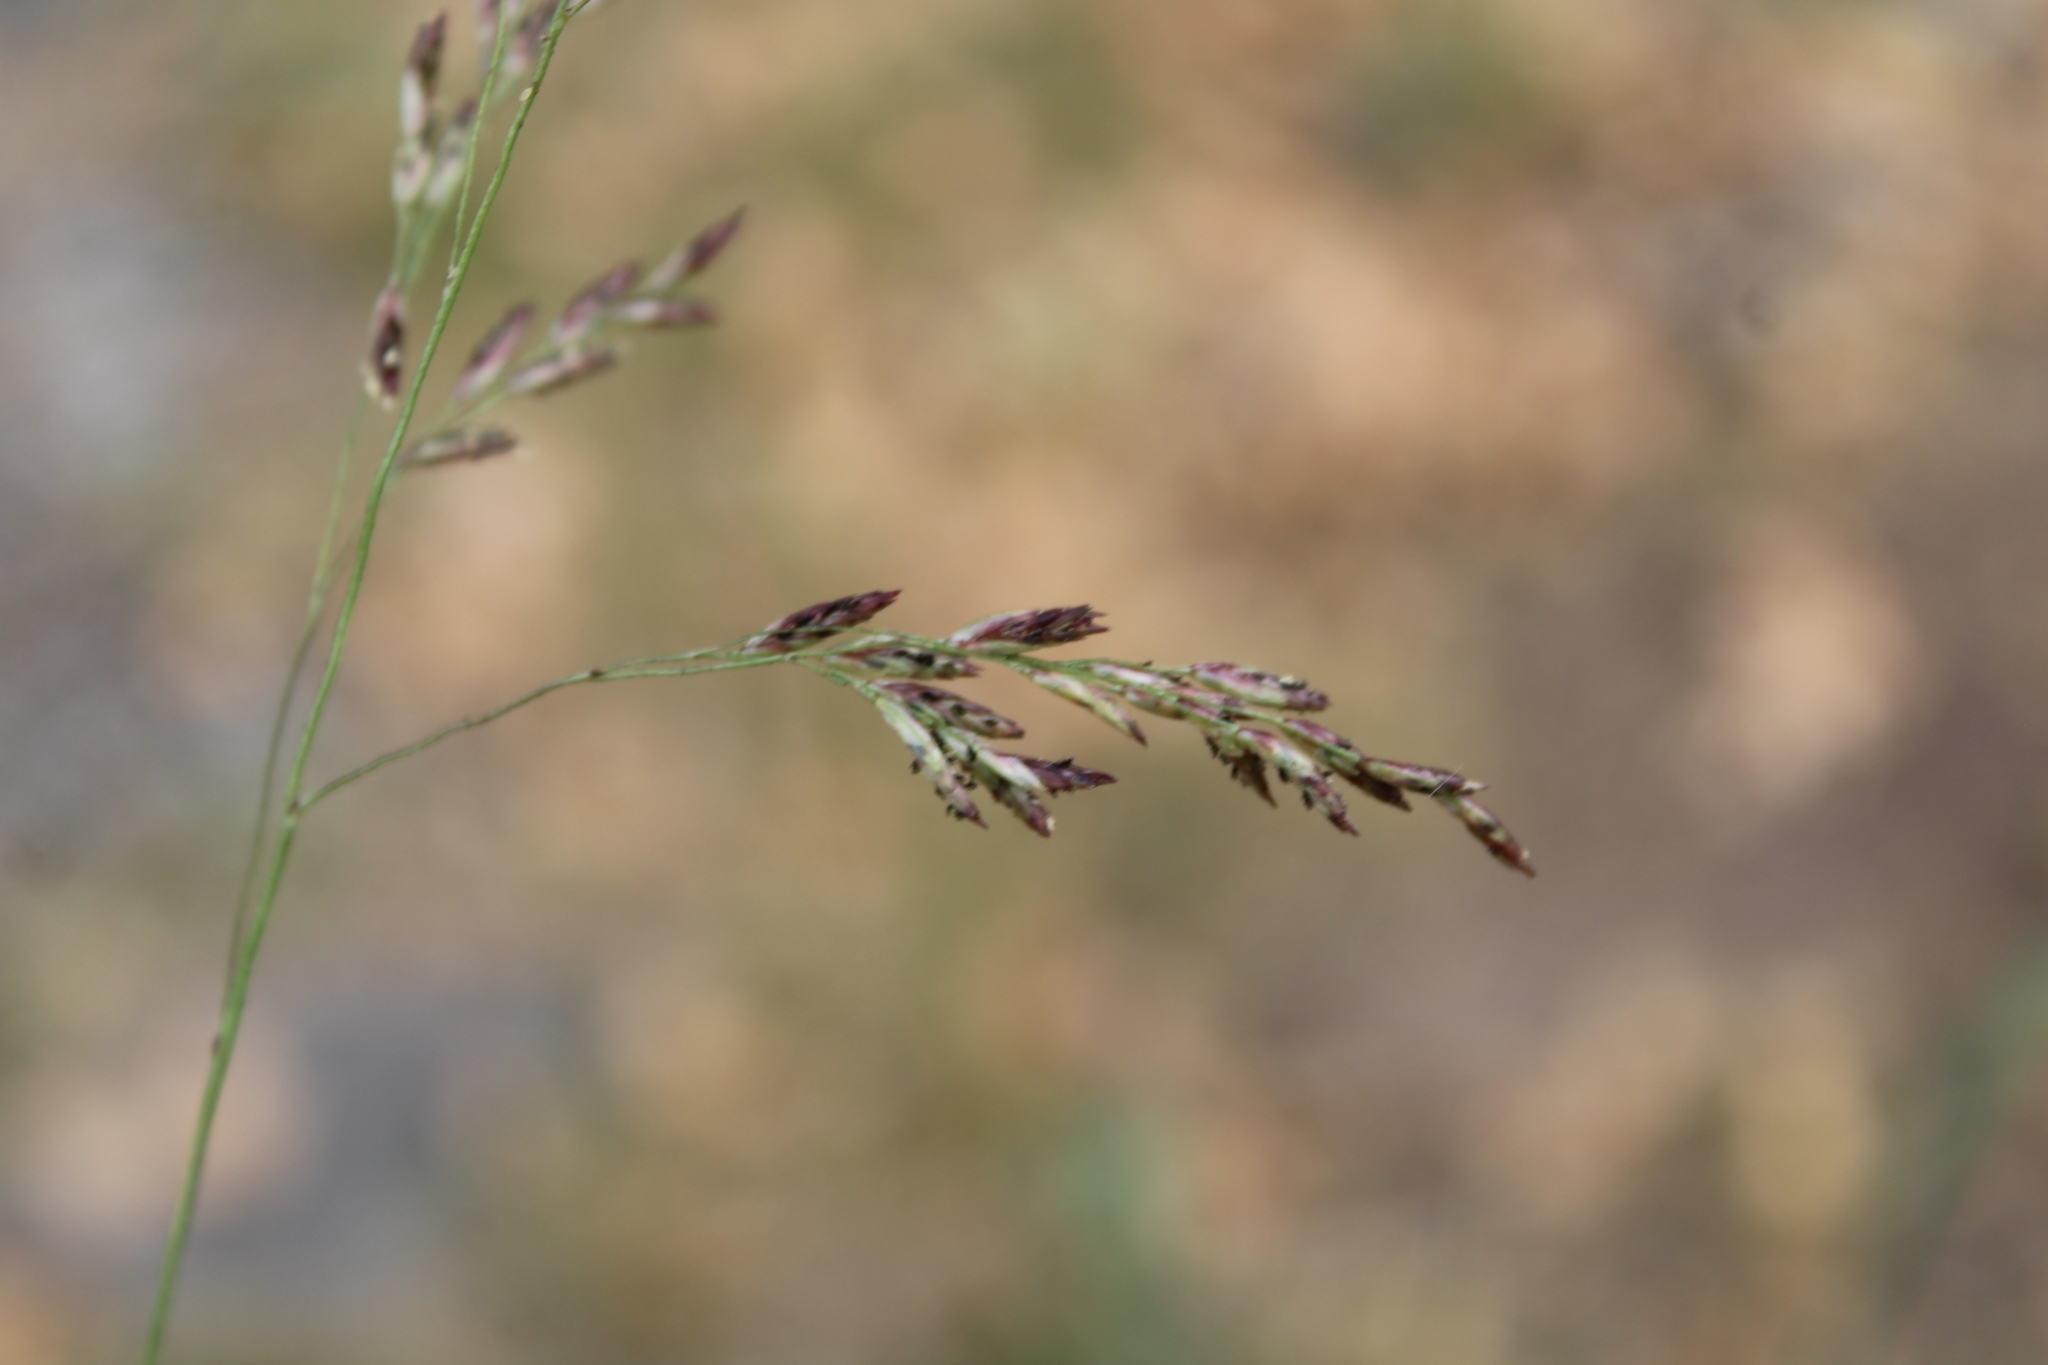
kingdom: Plantae
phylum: Tracheophyta
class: Liliopsida
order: Poales
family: Poaceae
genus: Tridens
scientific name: Tridens flavus
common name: Purpletop
